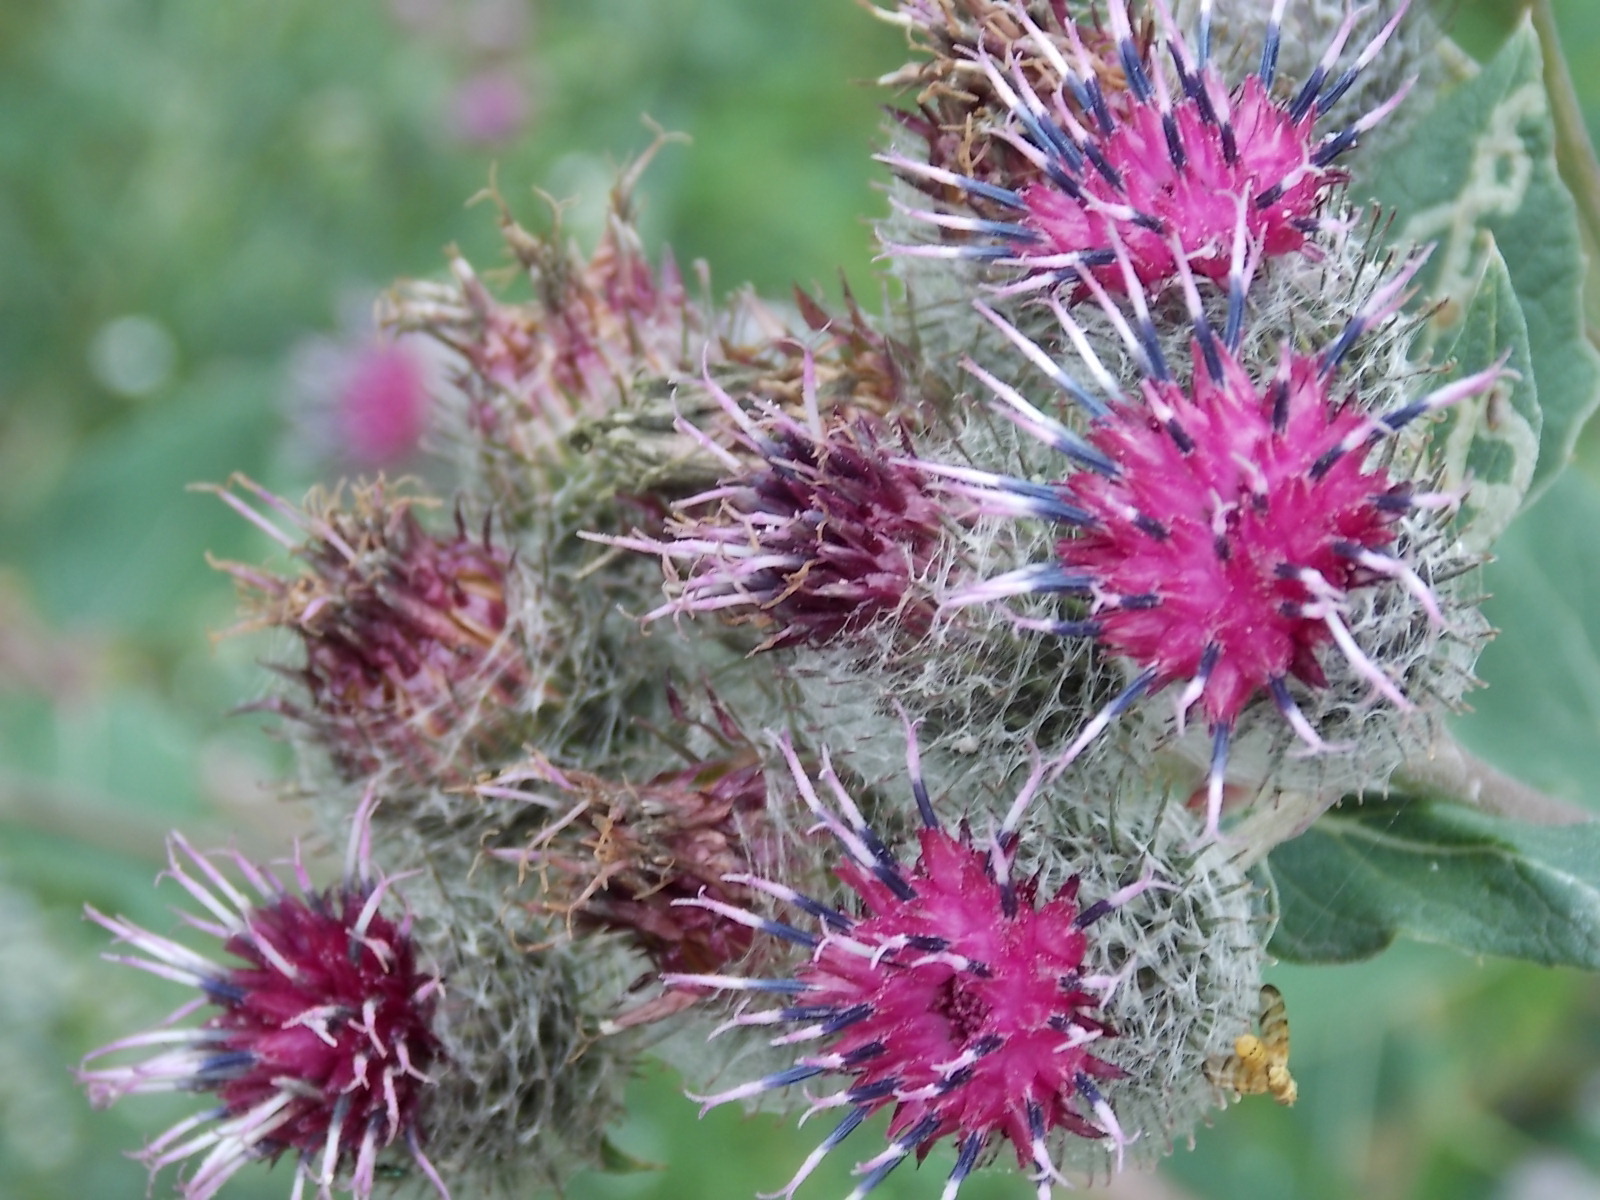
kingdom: Plantae
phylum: Tracheophyta
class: Magnoliopsida
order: Asterales
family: Asteraceae
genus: Arctium
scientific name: Arctium tomentosum
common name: Woolly burdock
